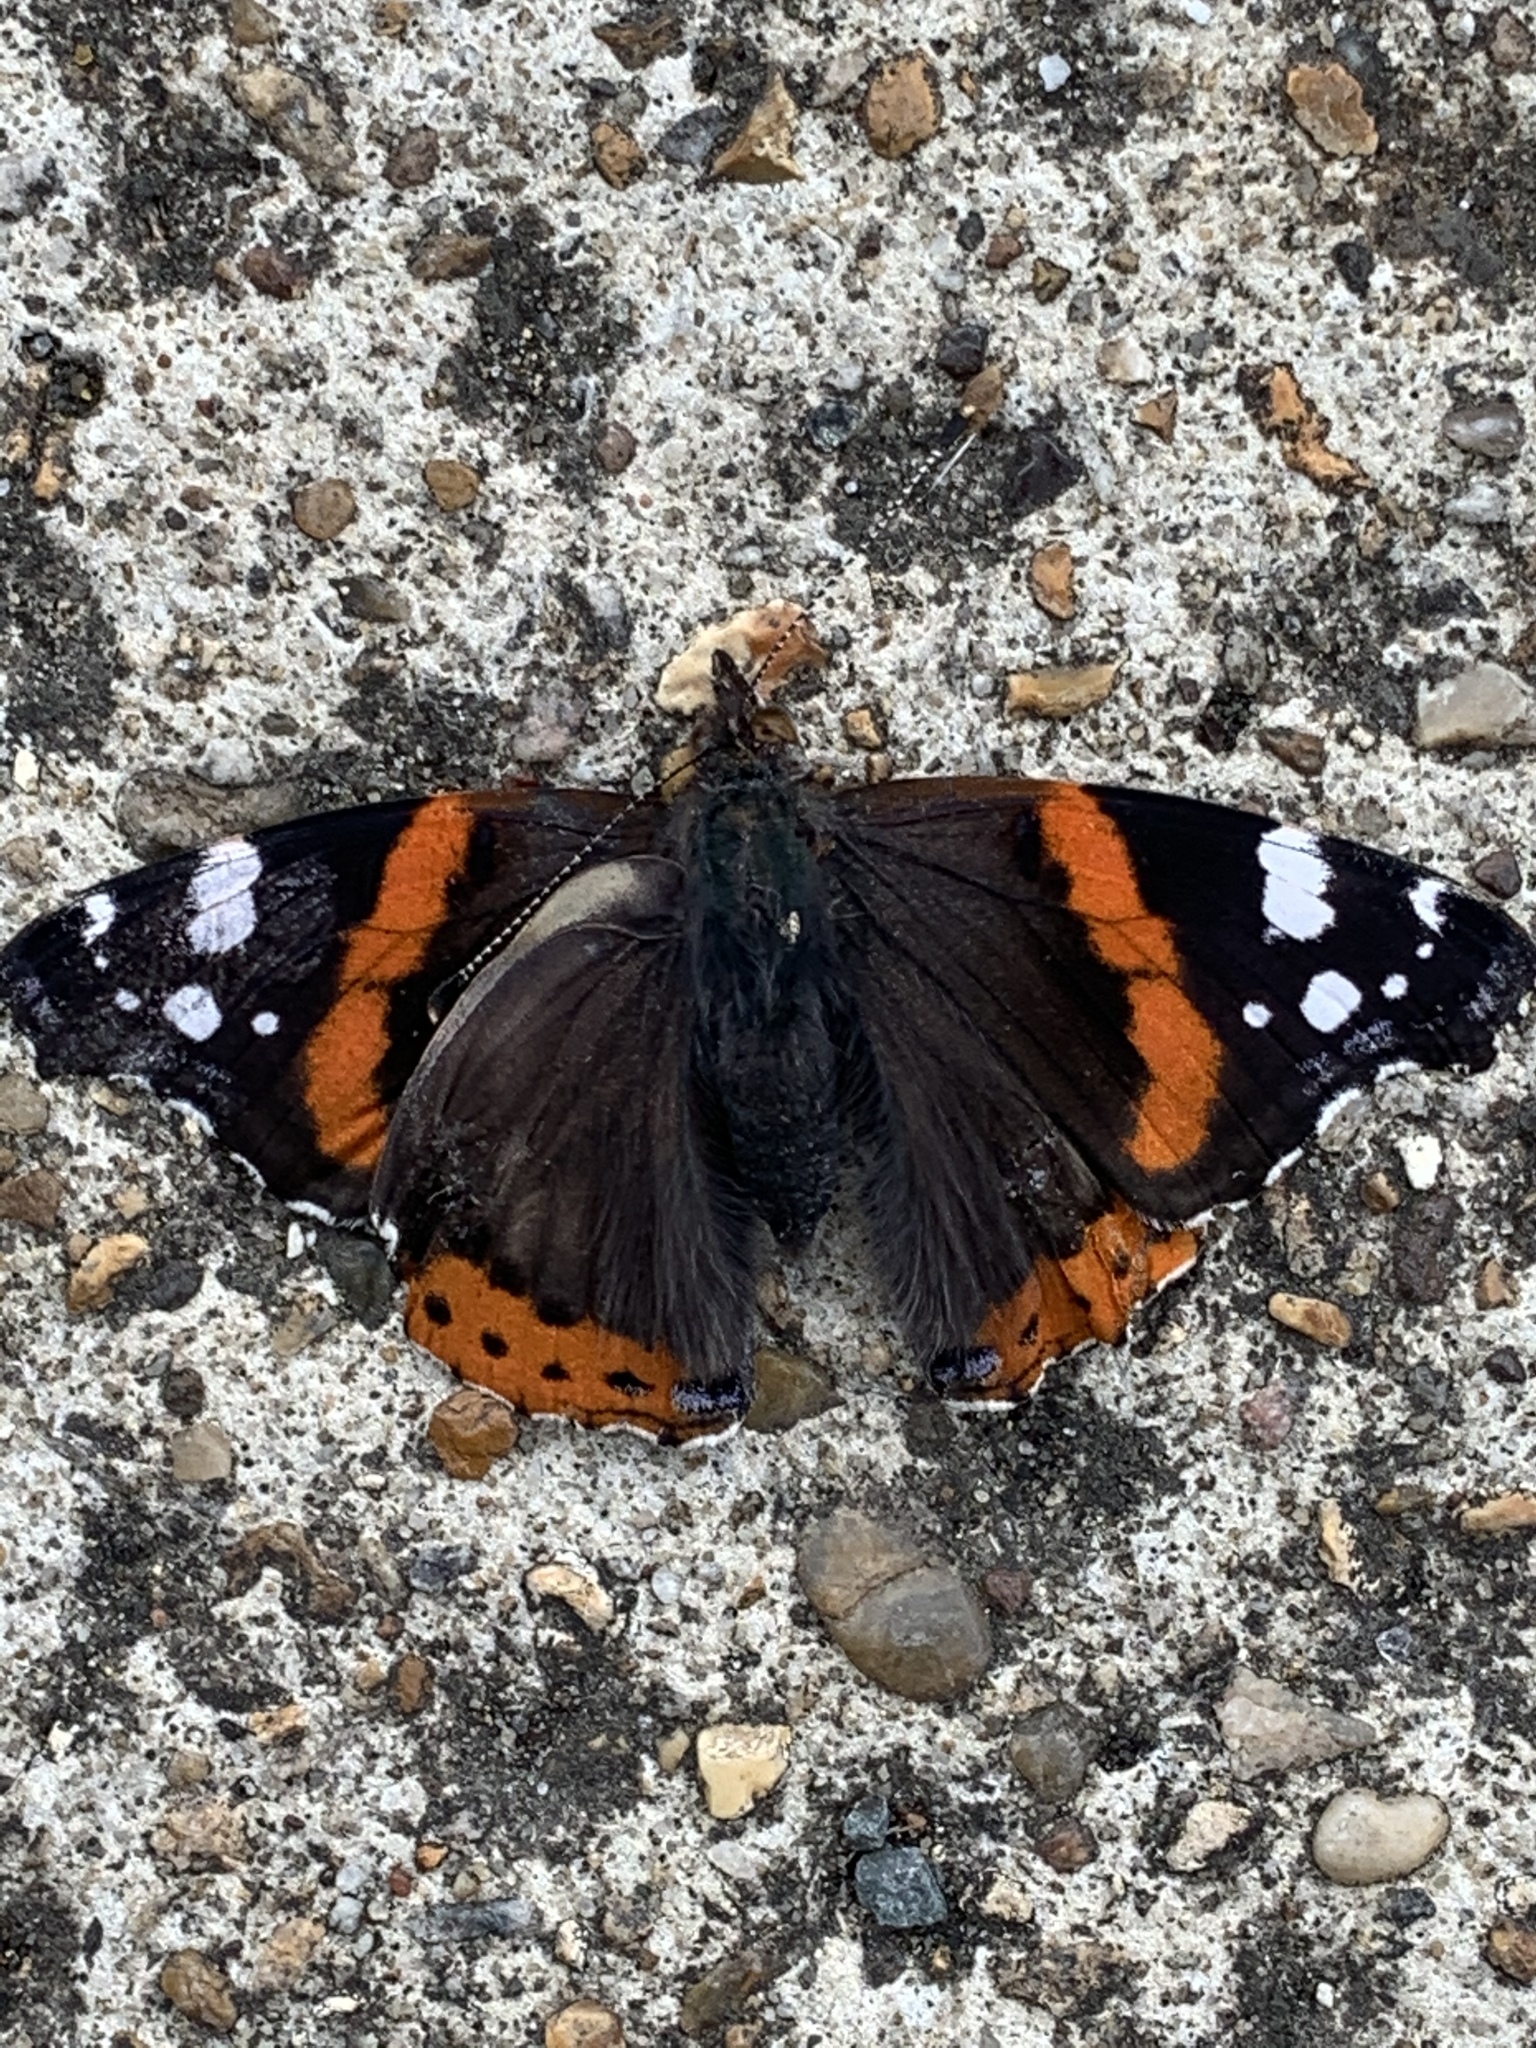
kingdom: Animalia
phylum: Arthropoda
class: Insecta
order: Lepidoptera
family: Nymphalidae
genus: Vanessa
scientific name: Vanessa atalanta
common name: Red admiral
